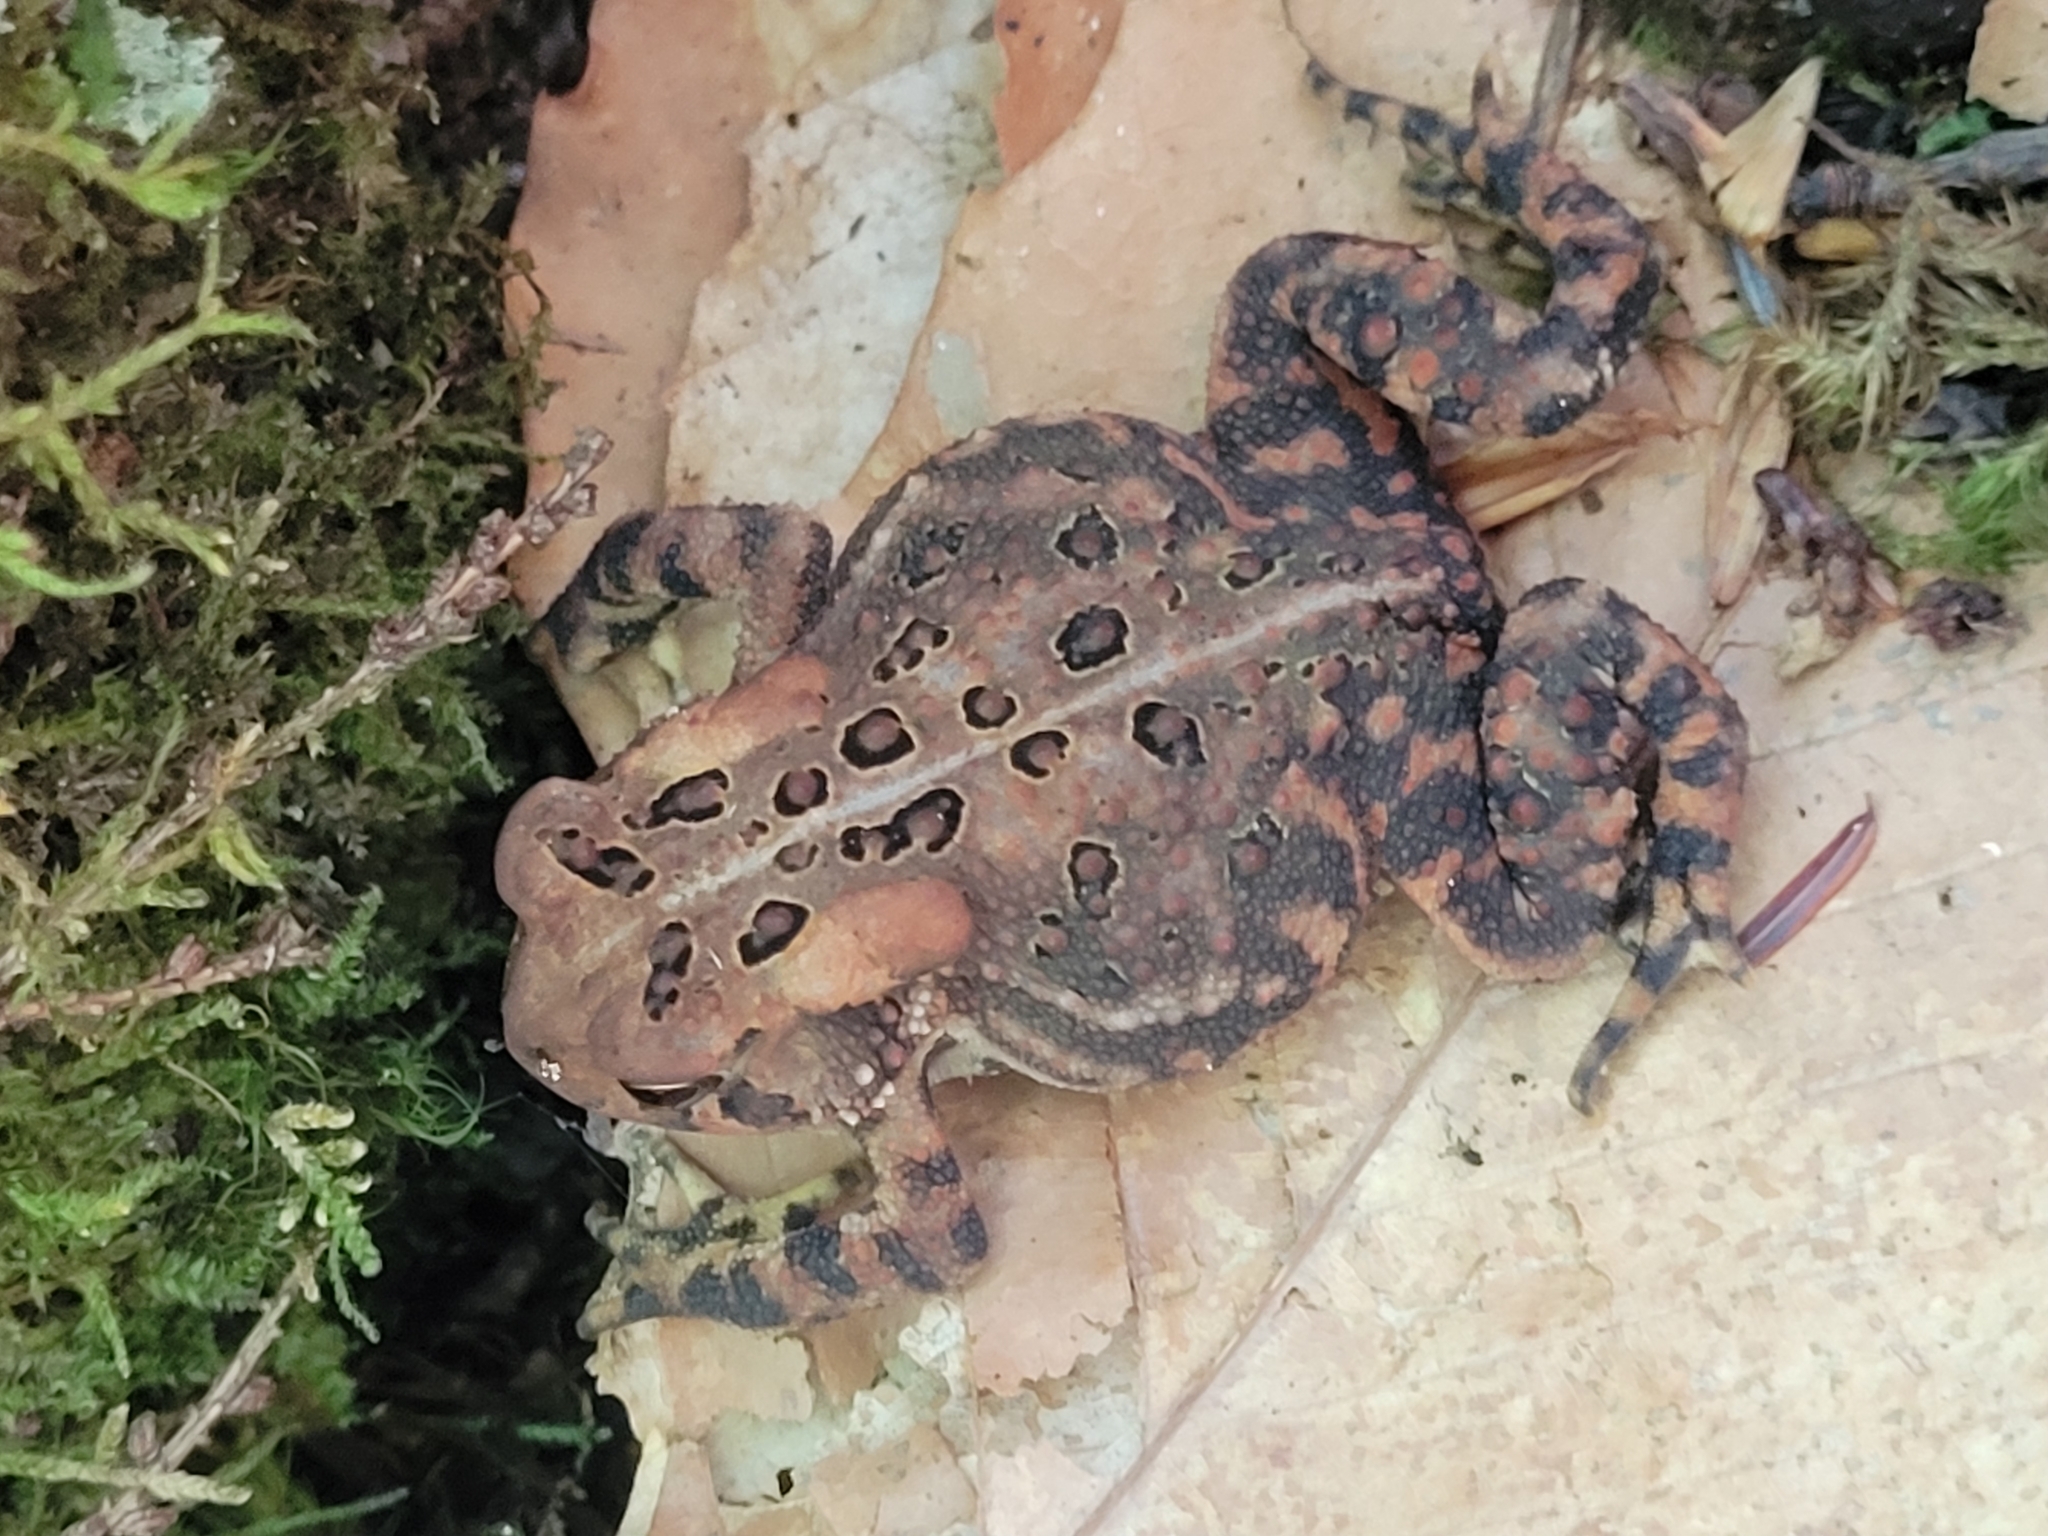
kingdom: Animalia
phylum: Chordata
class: Amphibia
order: Anura
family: Bufonidae
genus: Anaxyrus
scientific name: Anaxyrus americanus
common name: American toad
